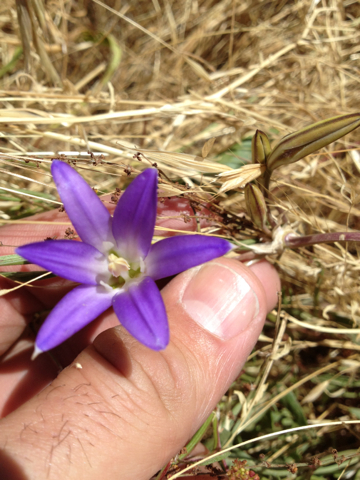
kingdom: Plantae
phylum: Tracheophyta
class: Liliopsida
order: Asparagales
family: Asparagaceae
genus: Brodiaea
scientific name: Brodiaea elegans
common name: Elegant cluster-lily
